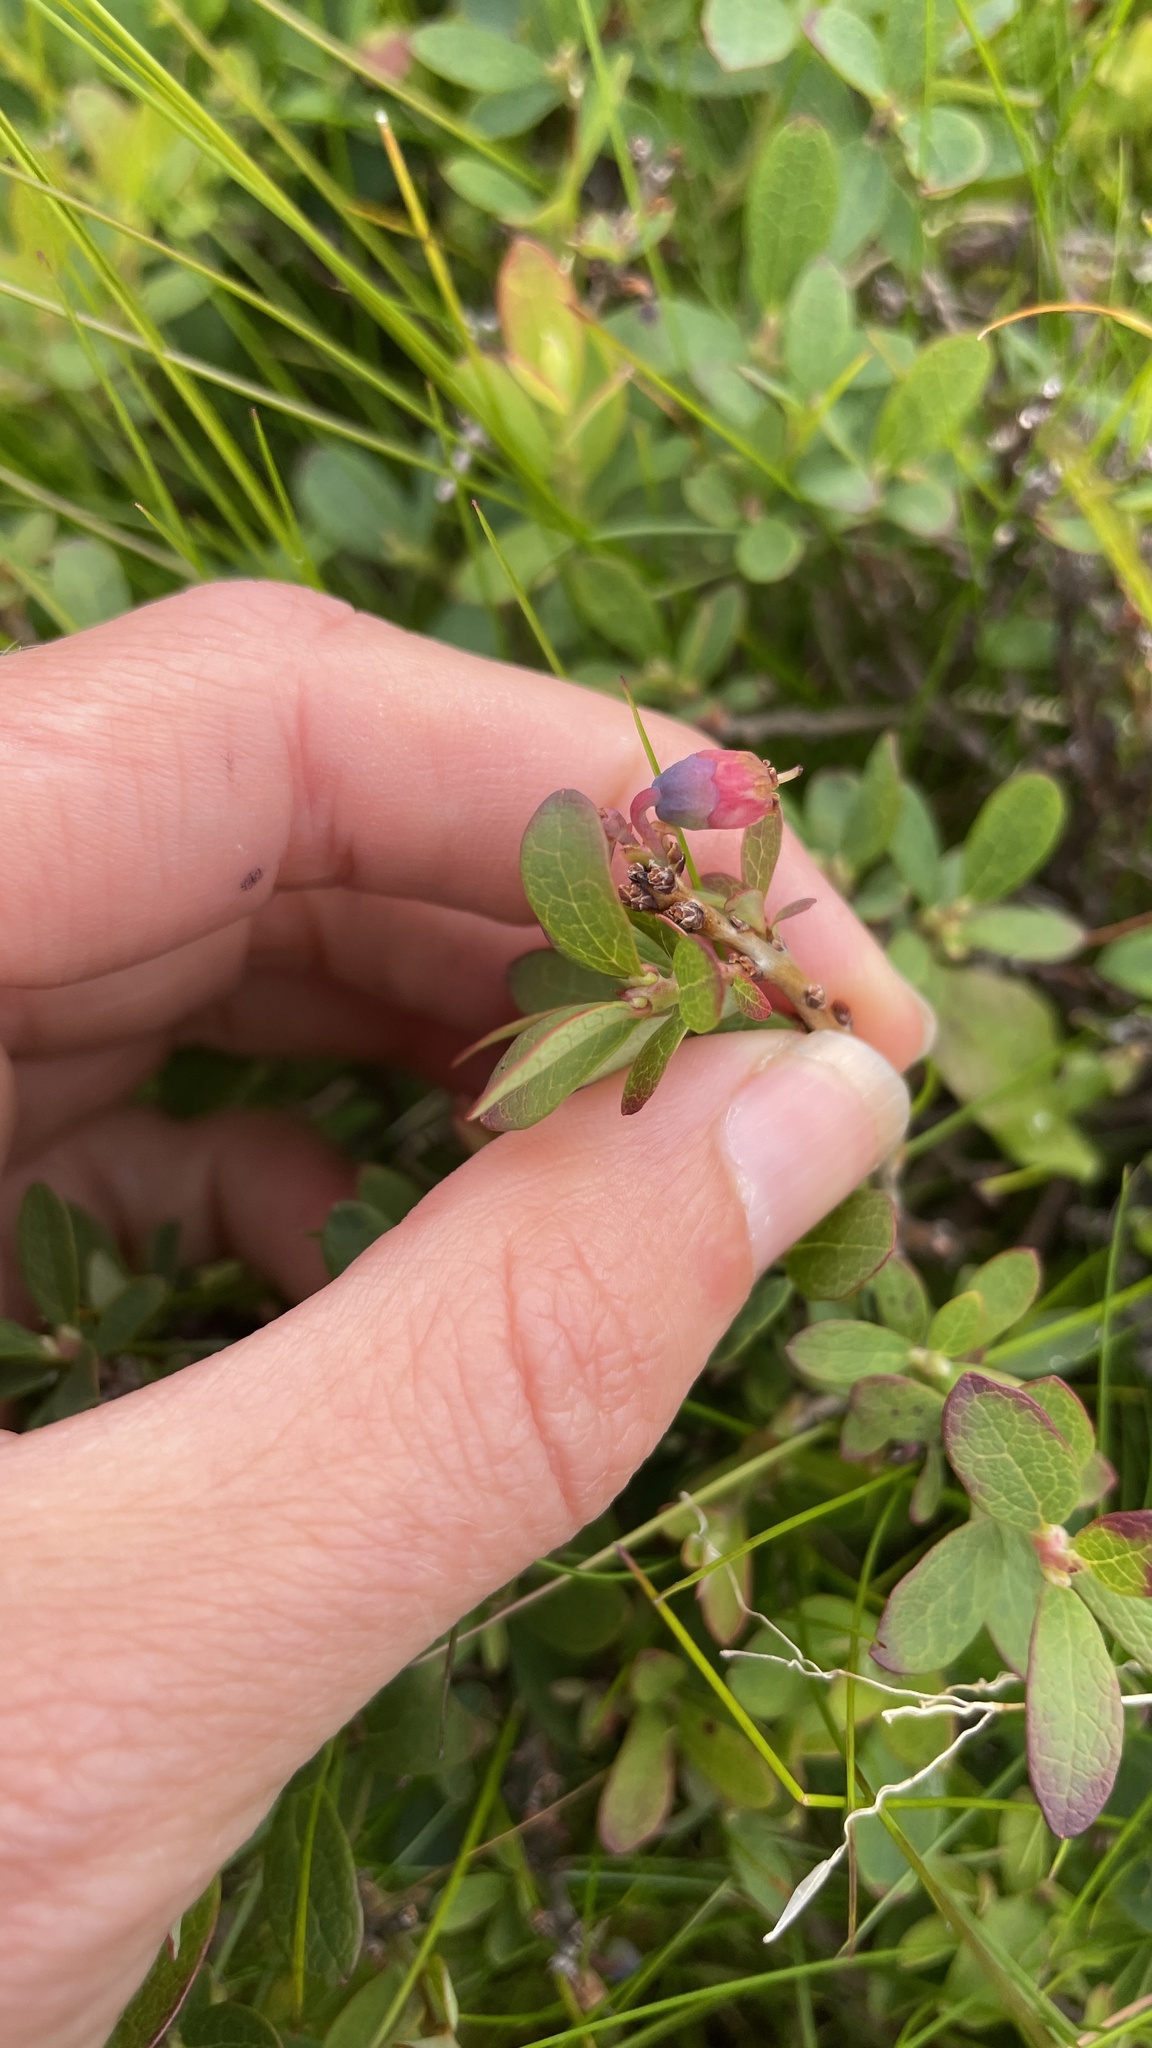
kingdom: Plantae
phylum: Tracheophyta
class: Magnoliopsida
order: Ericales
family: Ericaceae
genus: Vaccinium
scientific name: Vaccinium uliginosum
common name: Bog bilberry
